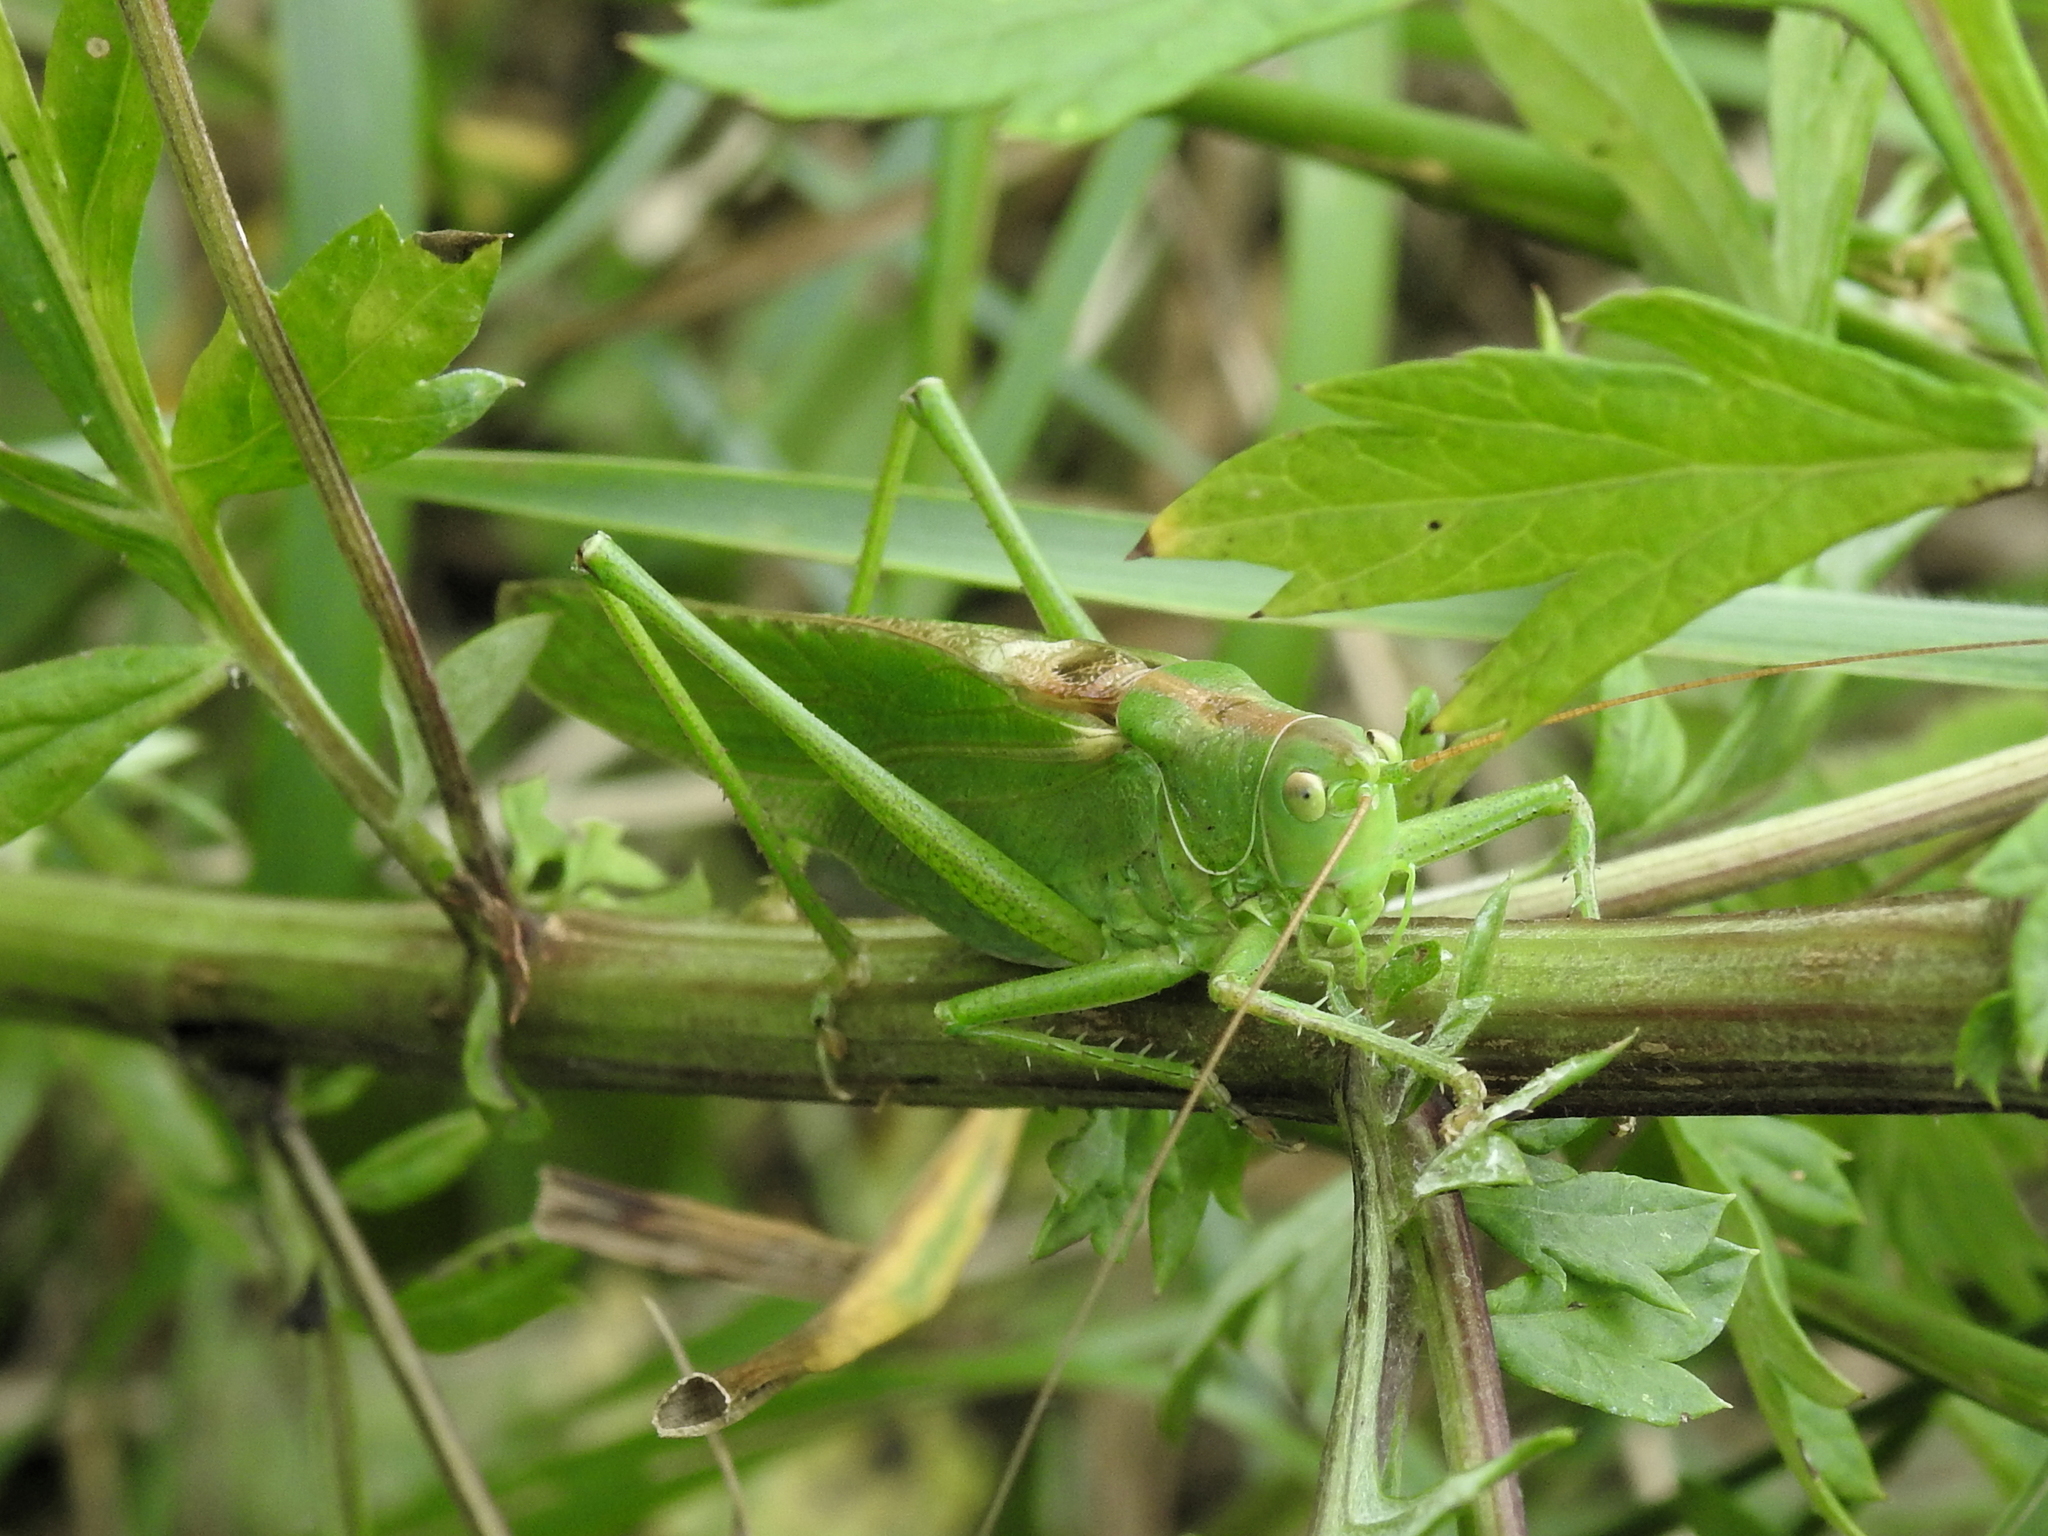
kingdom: Animalia
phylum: Arthropoda
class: Insecta
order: Orthoptera
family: Tettigoniidae
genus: Tettigonia
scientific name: Tettigonia viridissima
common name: Great green bush-cricket
